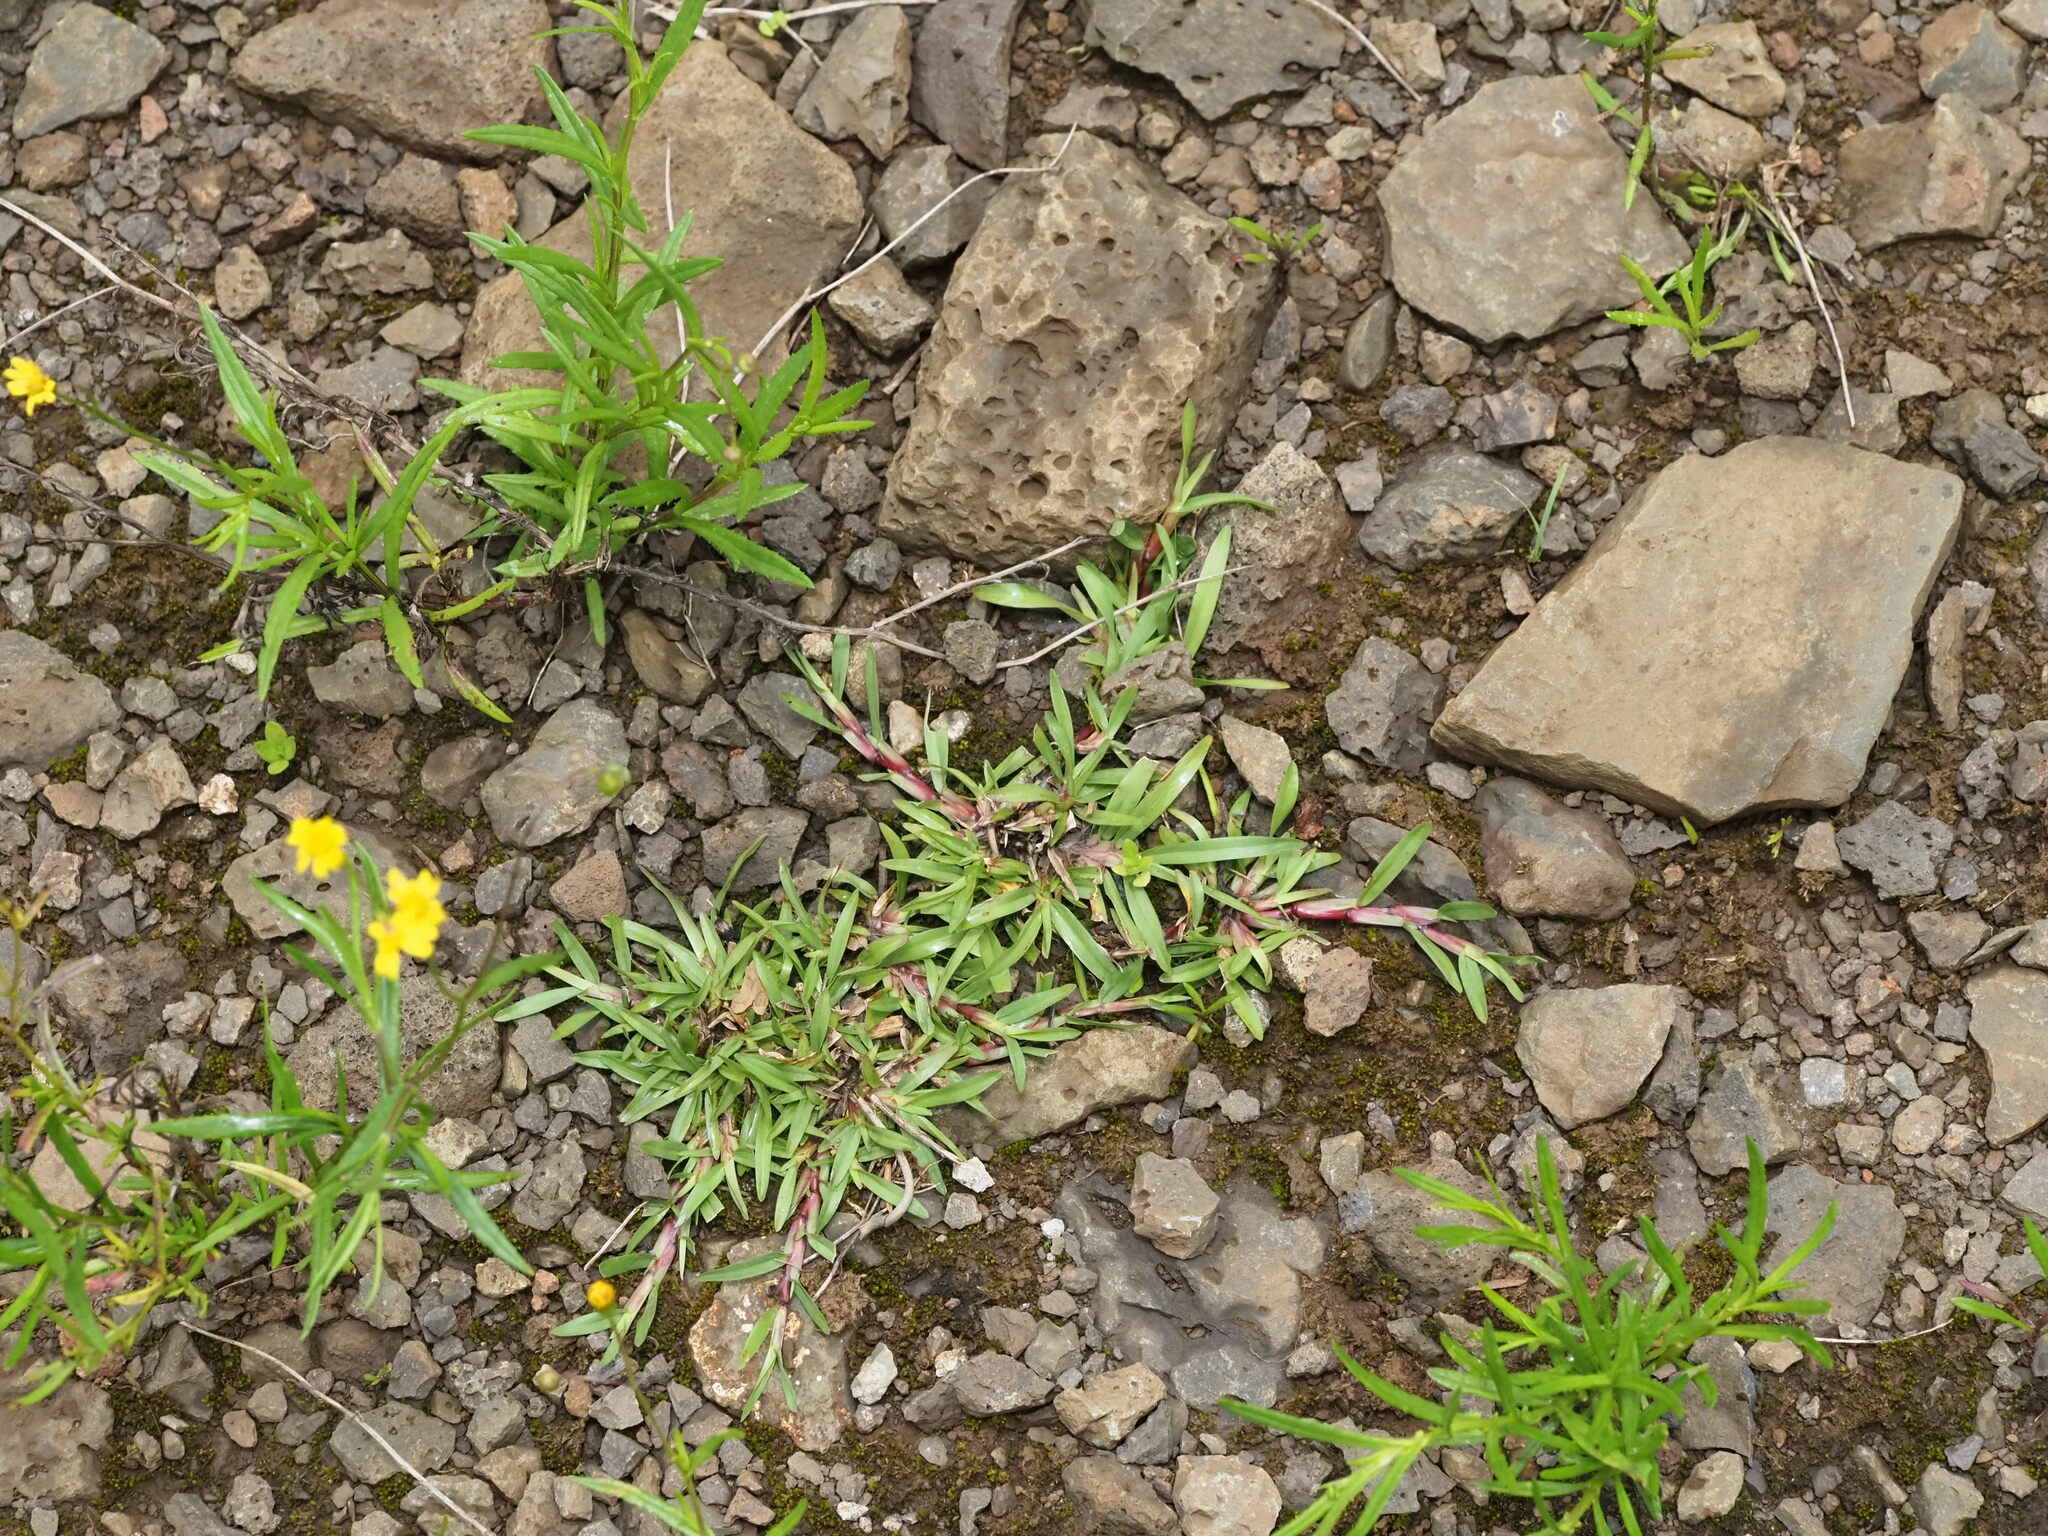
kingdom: Plantae
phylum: Tracheophyta
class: Liliopsida
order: Poales
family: Poaceae
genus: Axonopus
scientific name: Axonopus fissifolius
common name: Common carpetgrass
